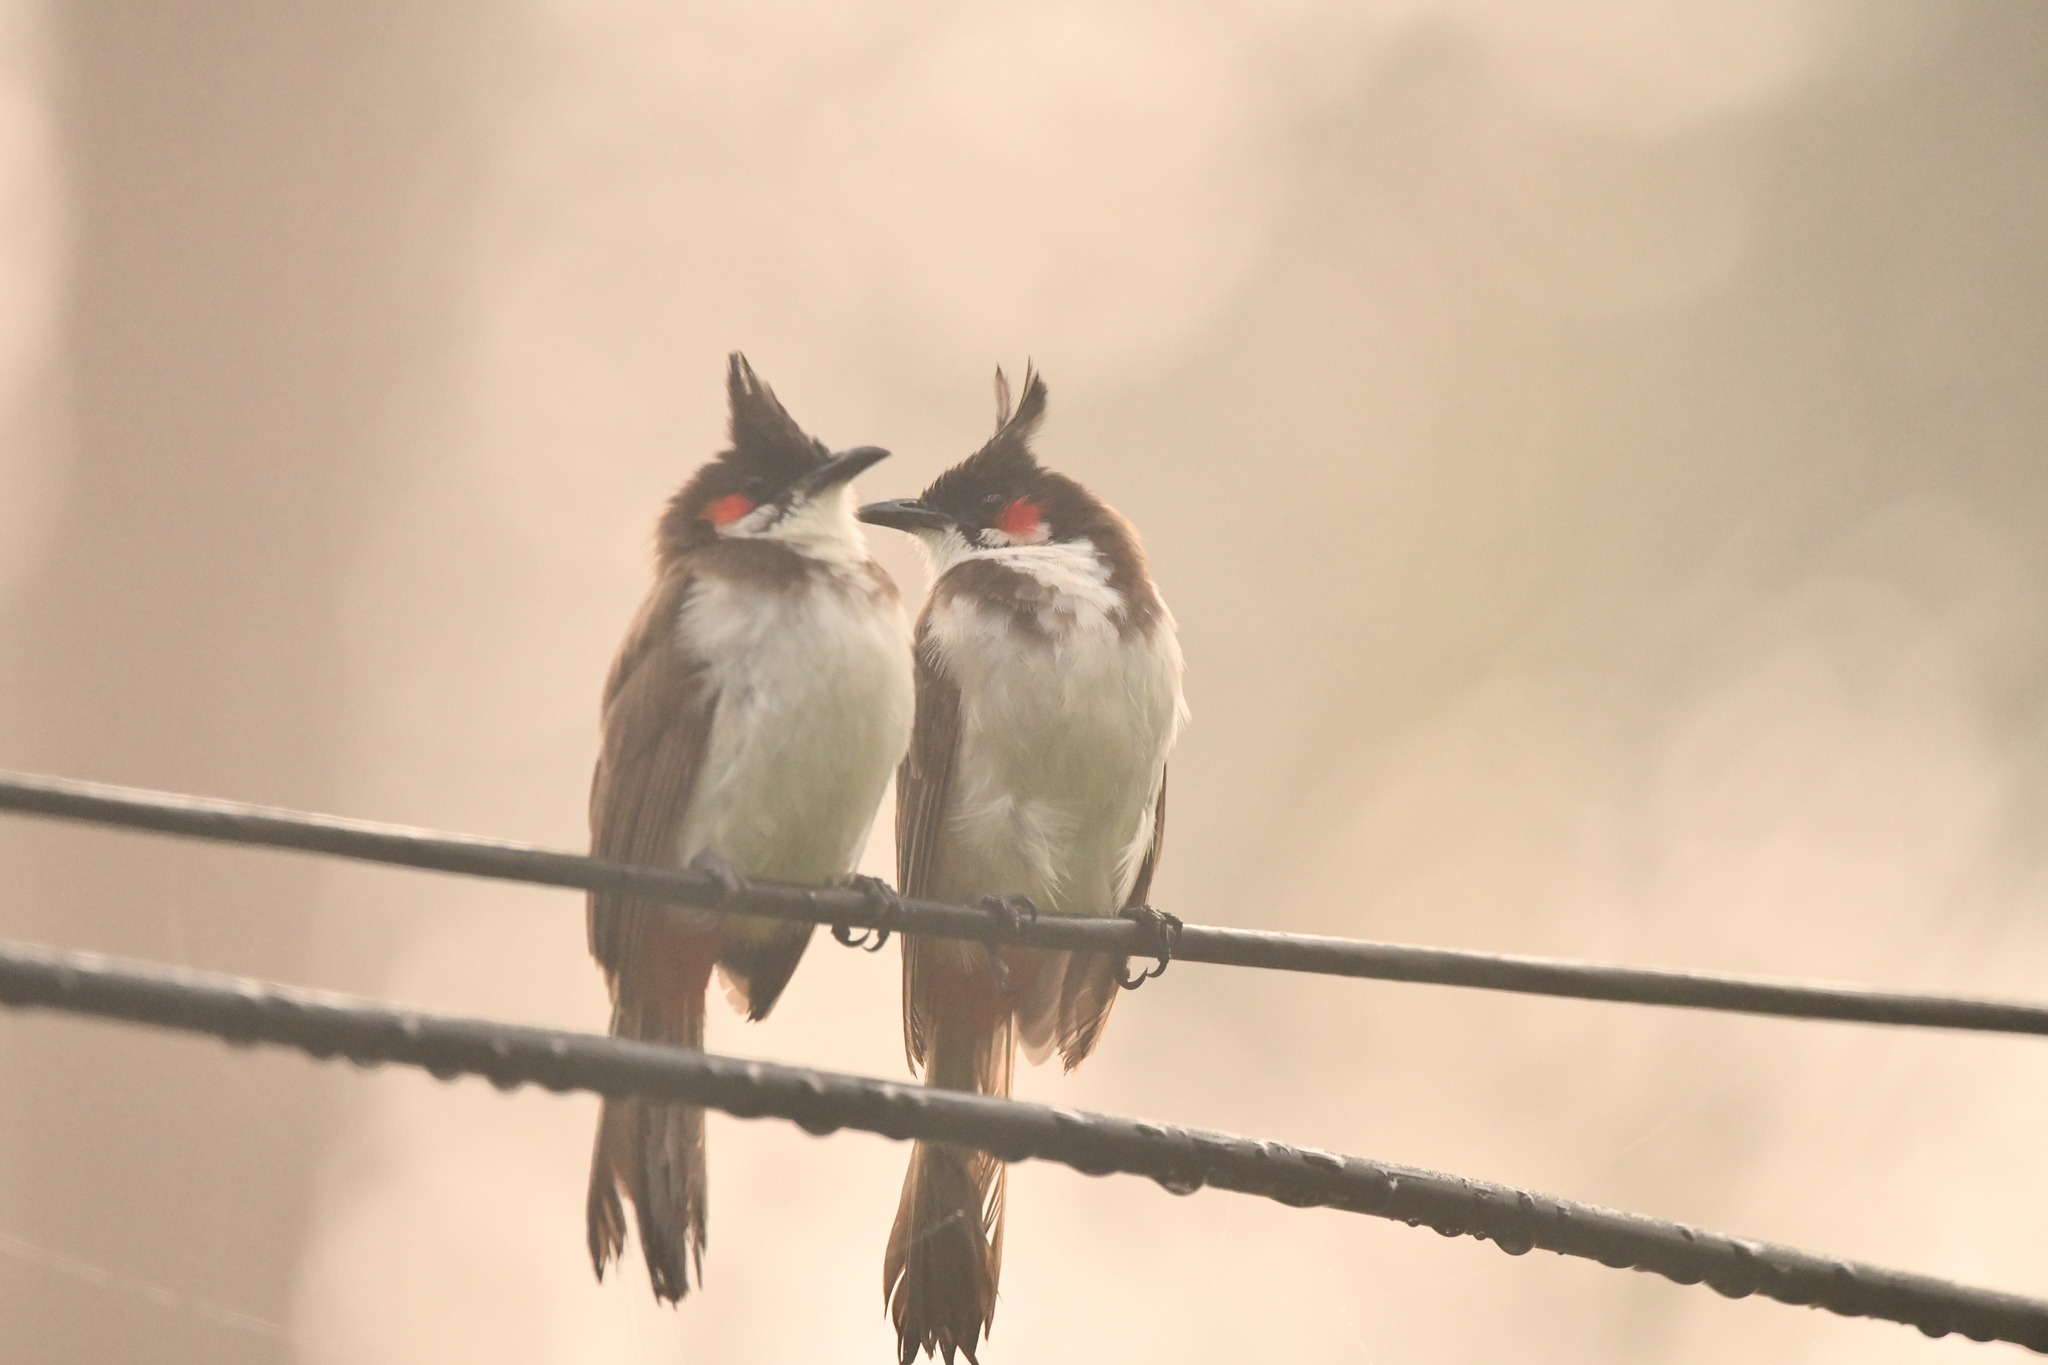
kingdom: Animalia
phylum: Chordata
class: Aves
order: Passeriformes
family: Pycnonotidae
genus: Pycnonotus
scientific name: Pycnonotus jocosus
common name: Red-whiskered bulbul
